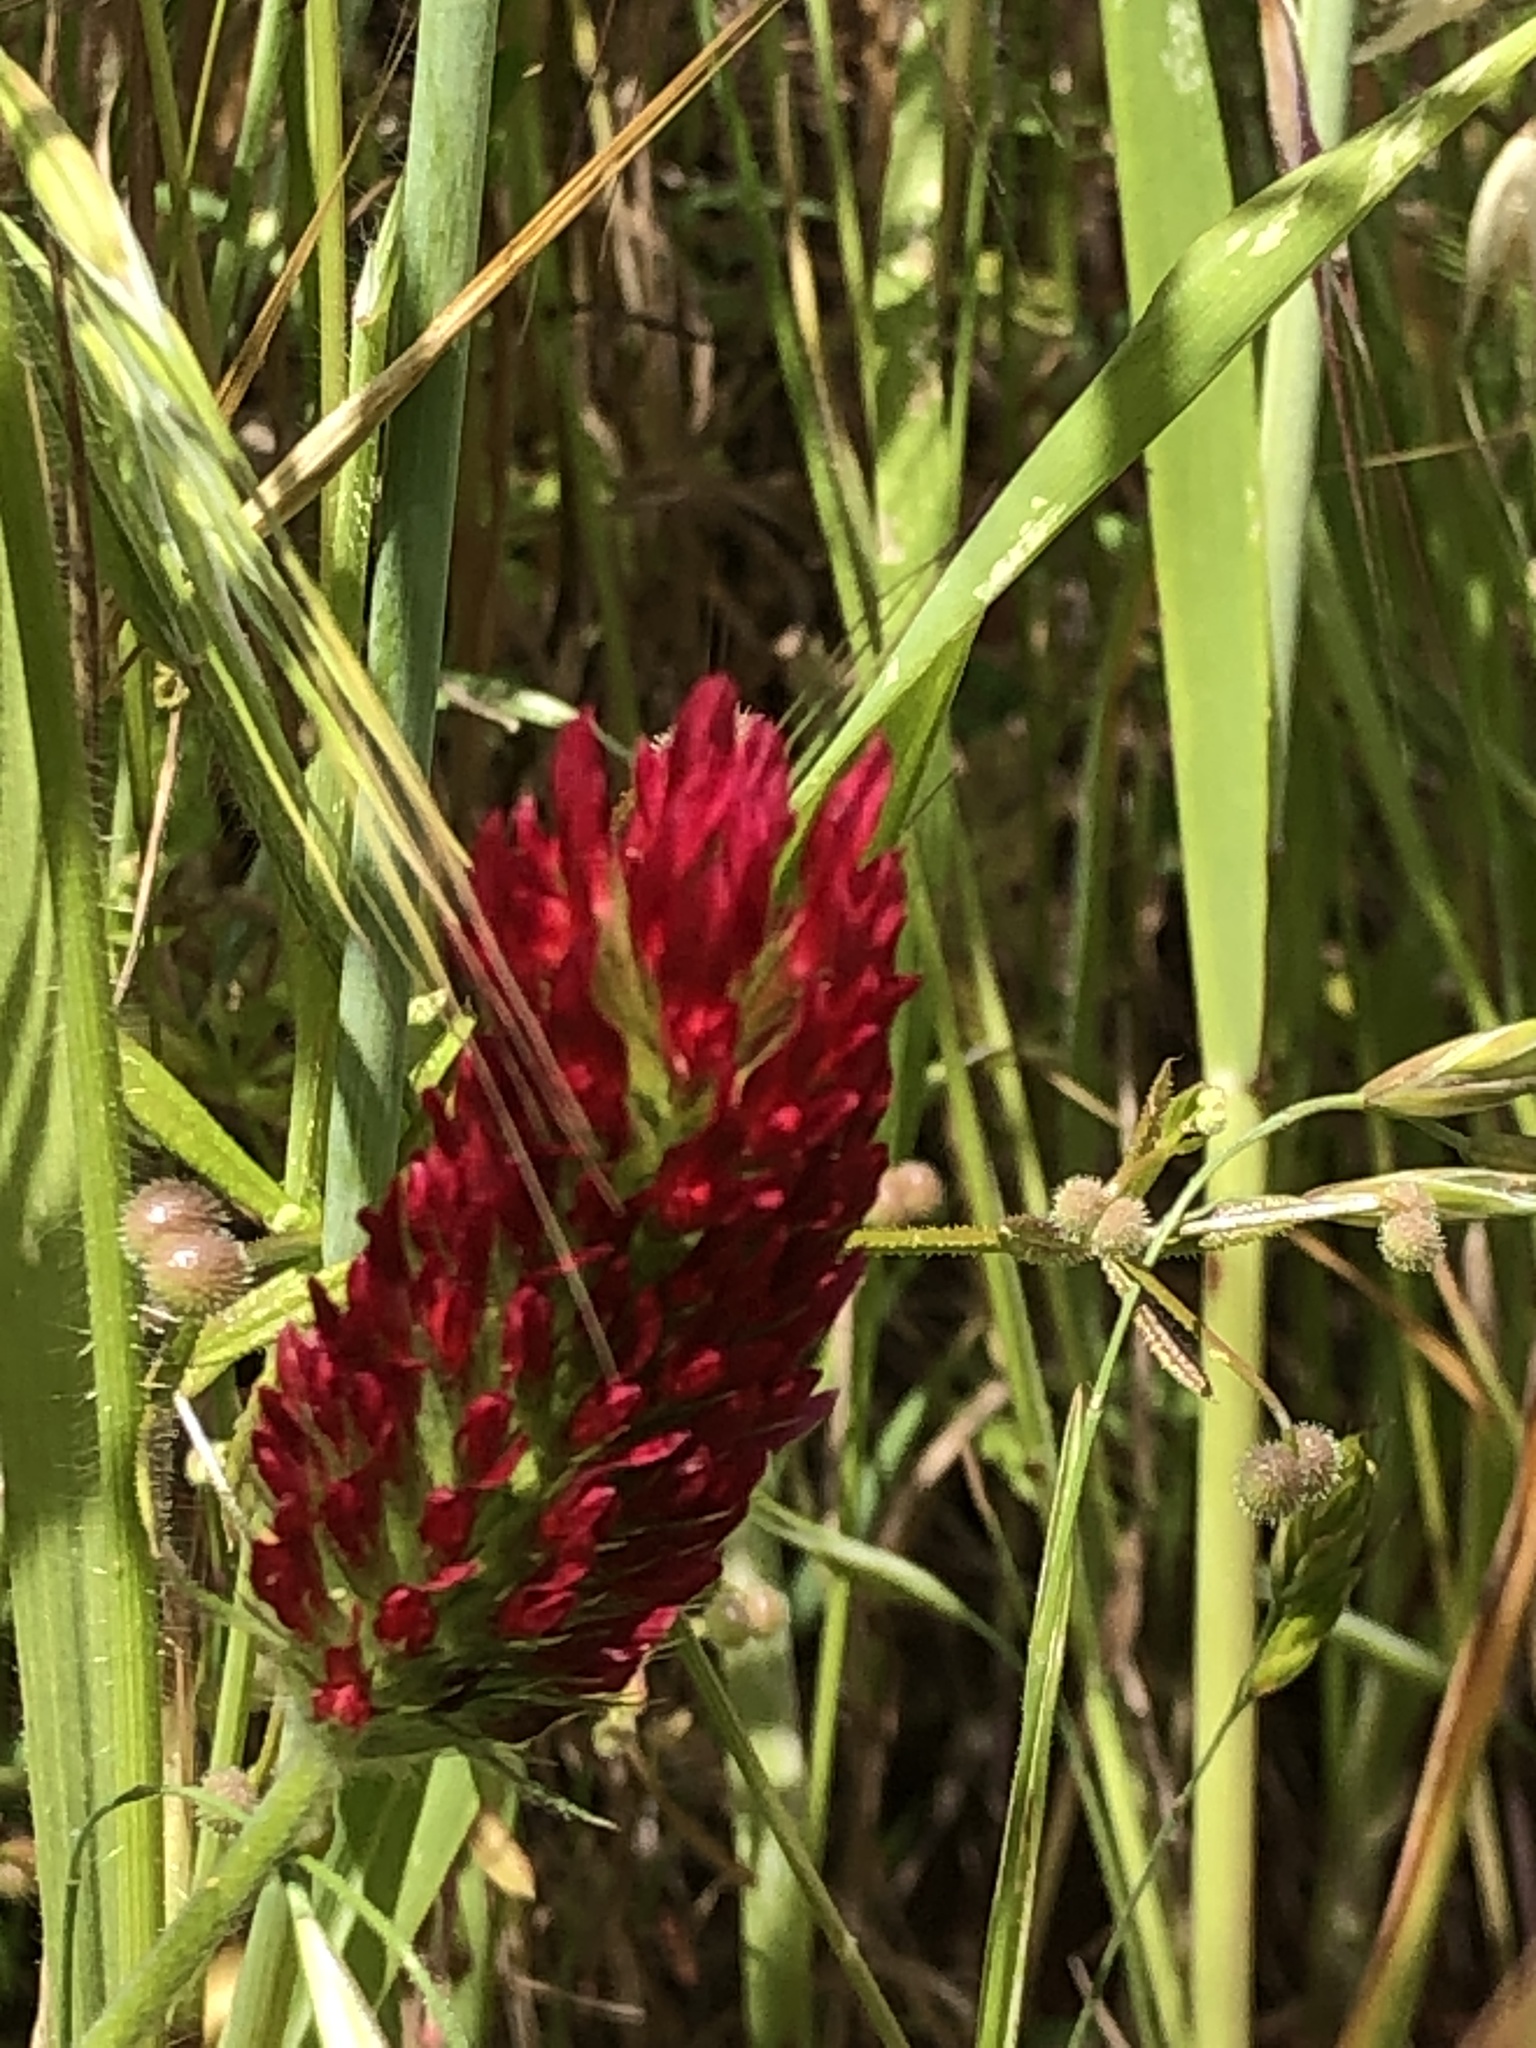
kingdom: Plantae
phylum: Tracheophyta
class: Magnoliopsida
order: Fabales
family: Fabaceae
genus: Trifolium
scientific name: Trifolium incarnatum
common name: Crimson clover
